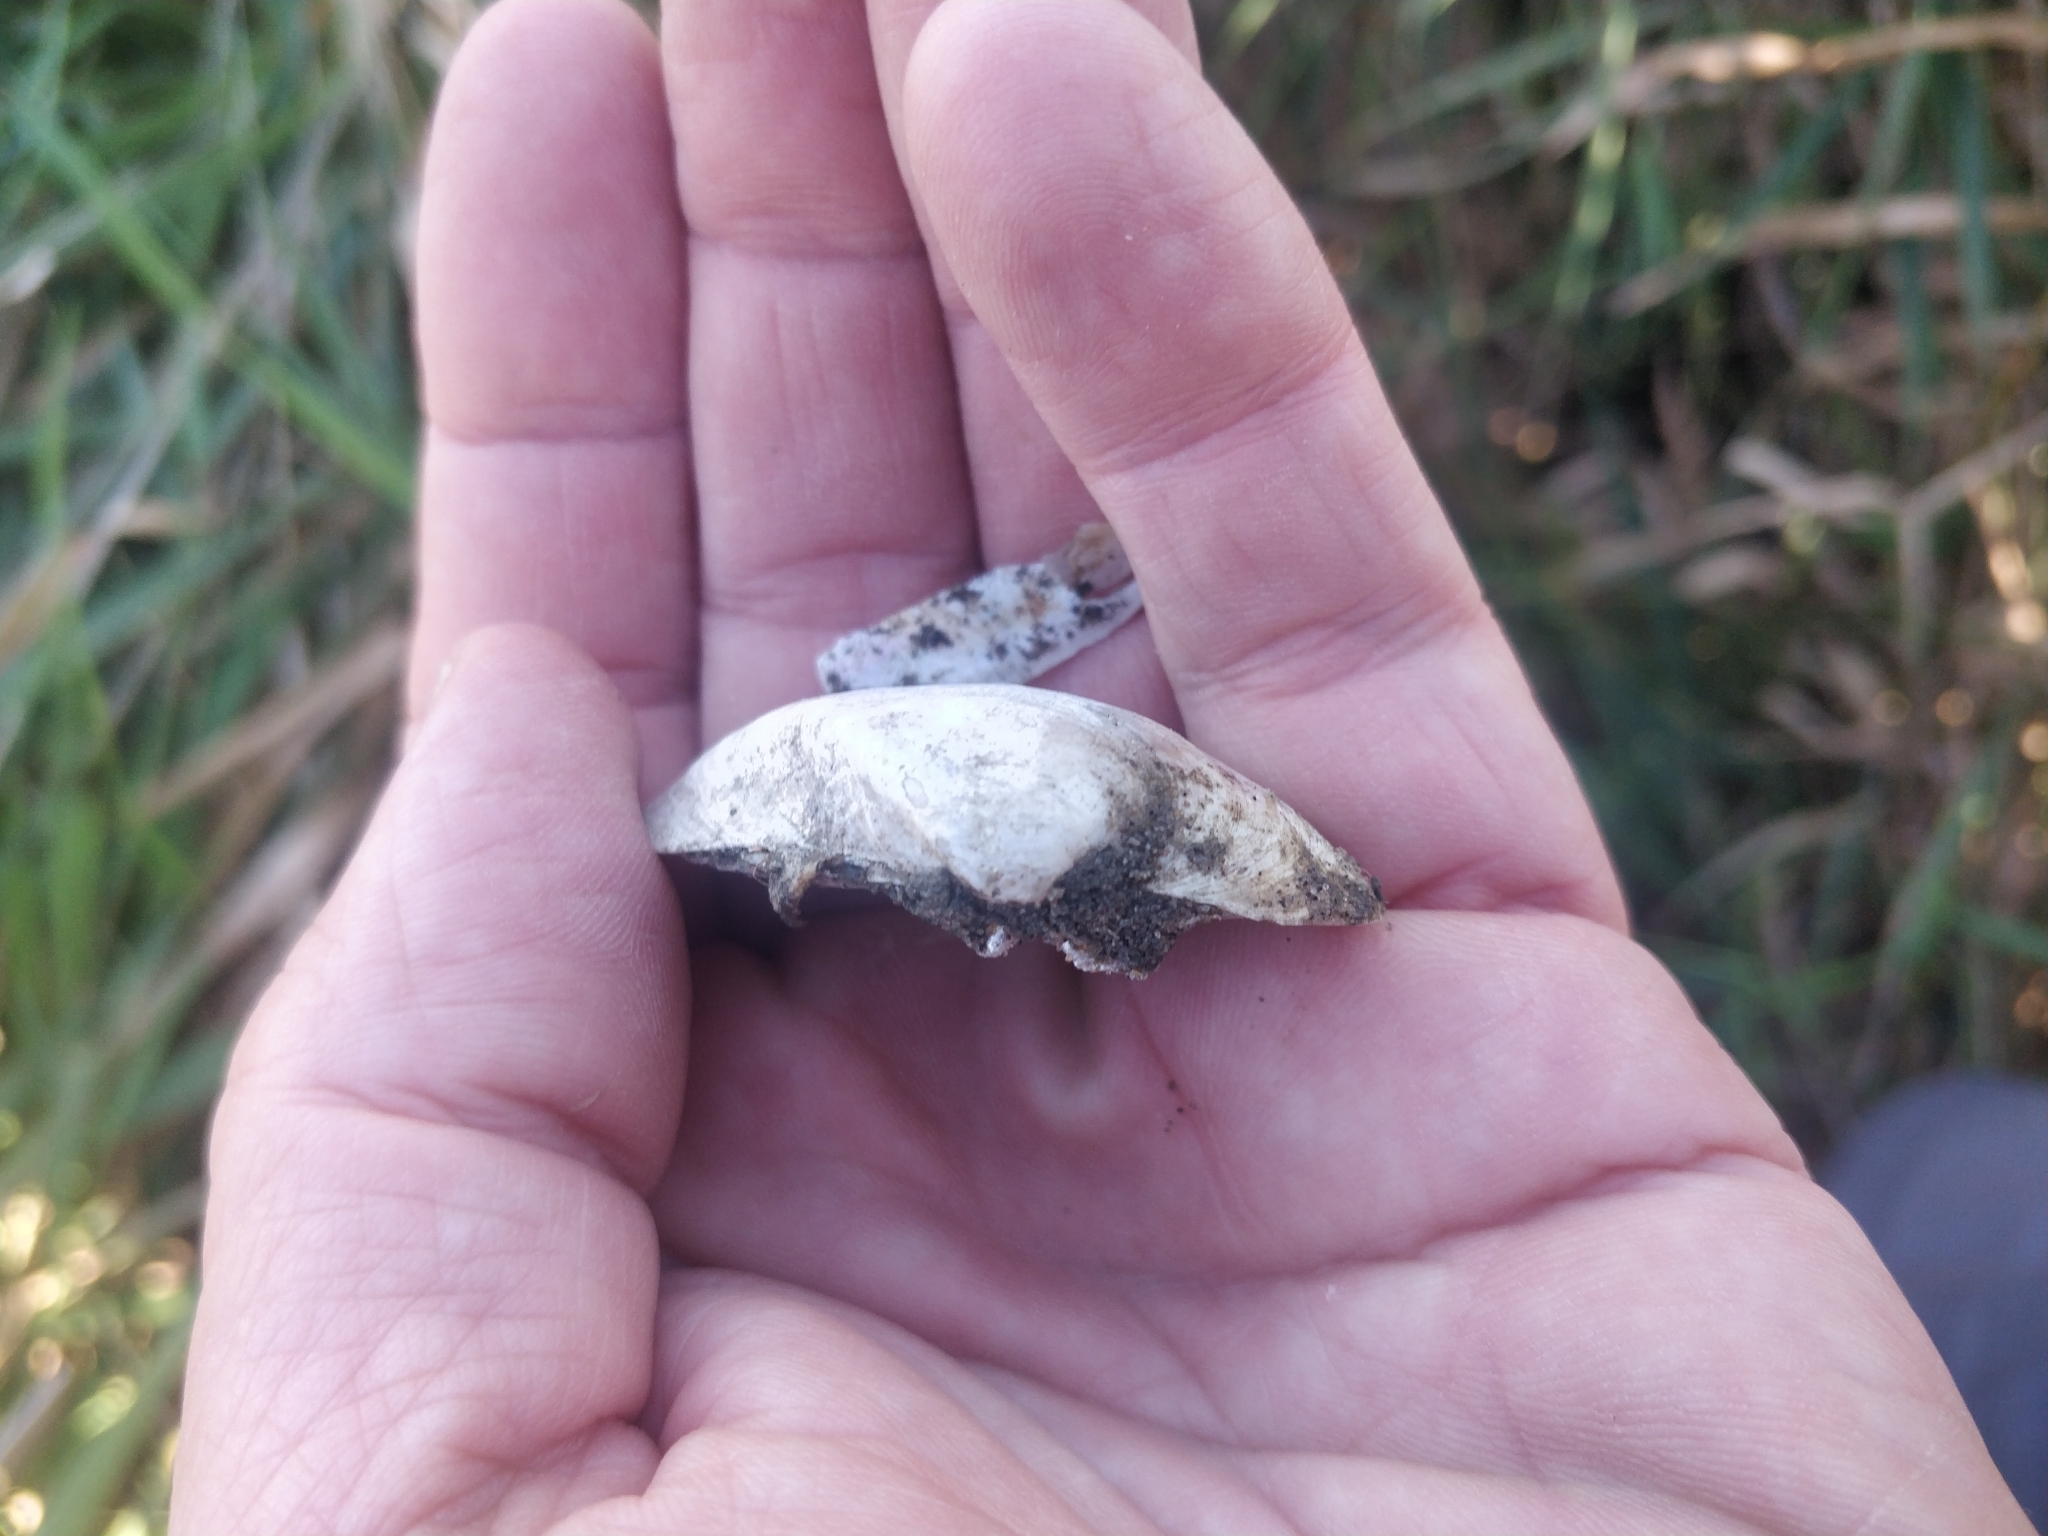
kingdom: Animalia
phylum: Mollusca
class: Bivalvia
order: Unionida
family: Unionidae
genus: Truncilla
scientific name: Truncilla truncata
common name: Deertoe
